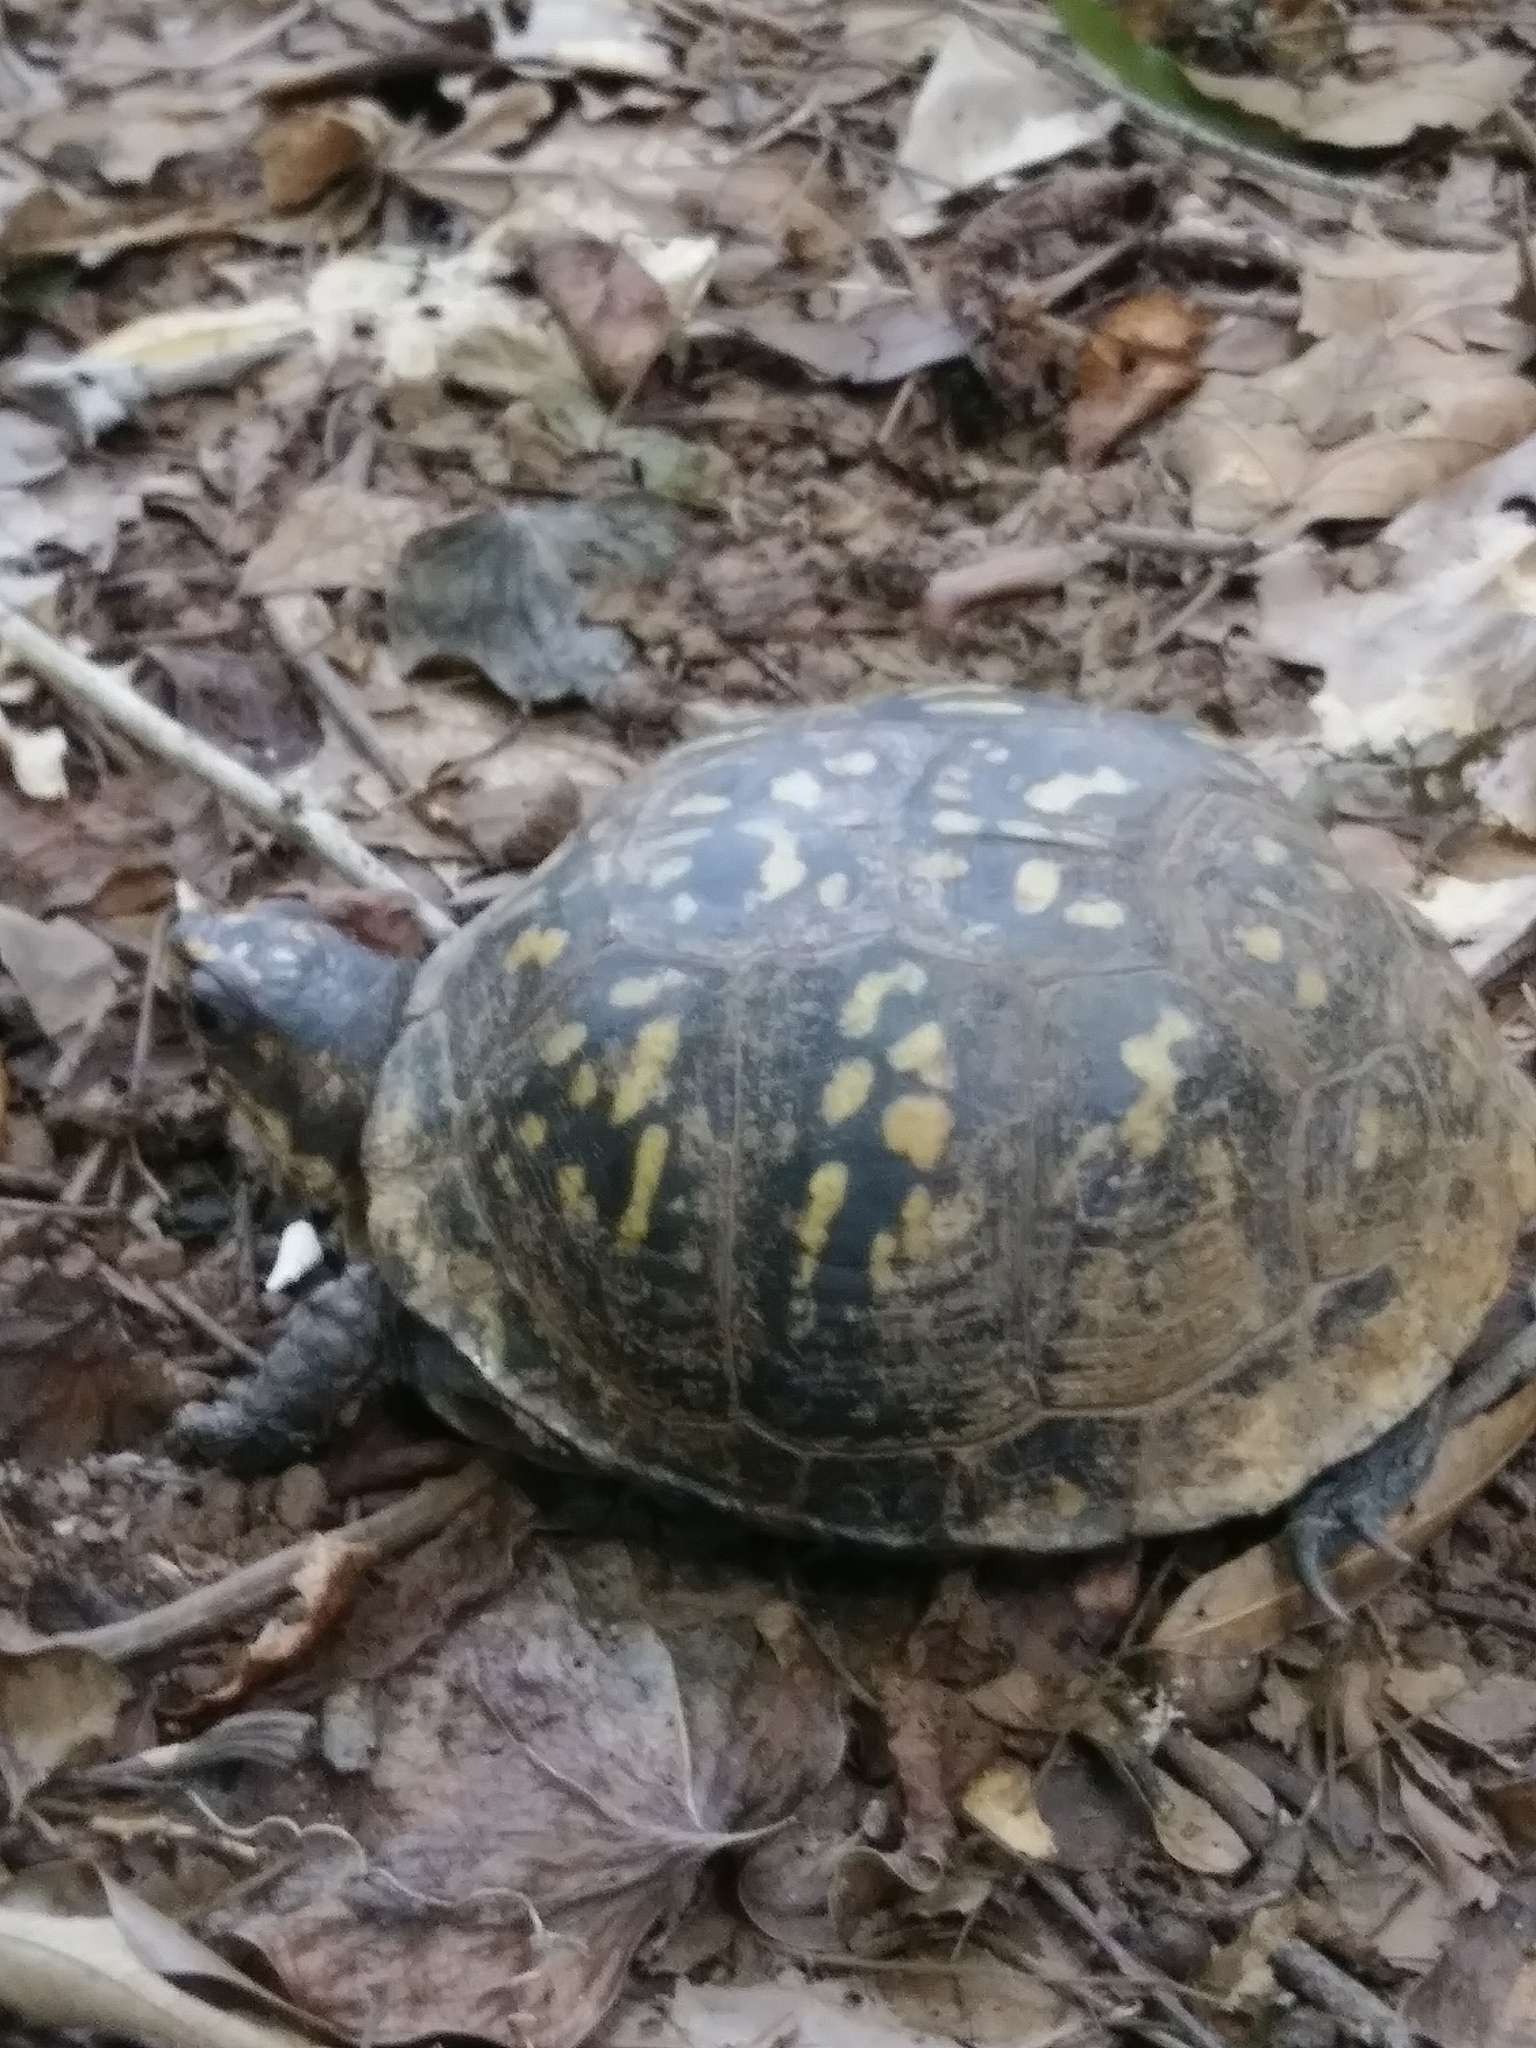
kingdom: Animalia
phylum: Chordata
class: Testudines
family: Emydidae
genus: Terrapene
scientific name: Terrapene carolina
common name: Common box turtle
